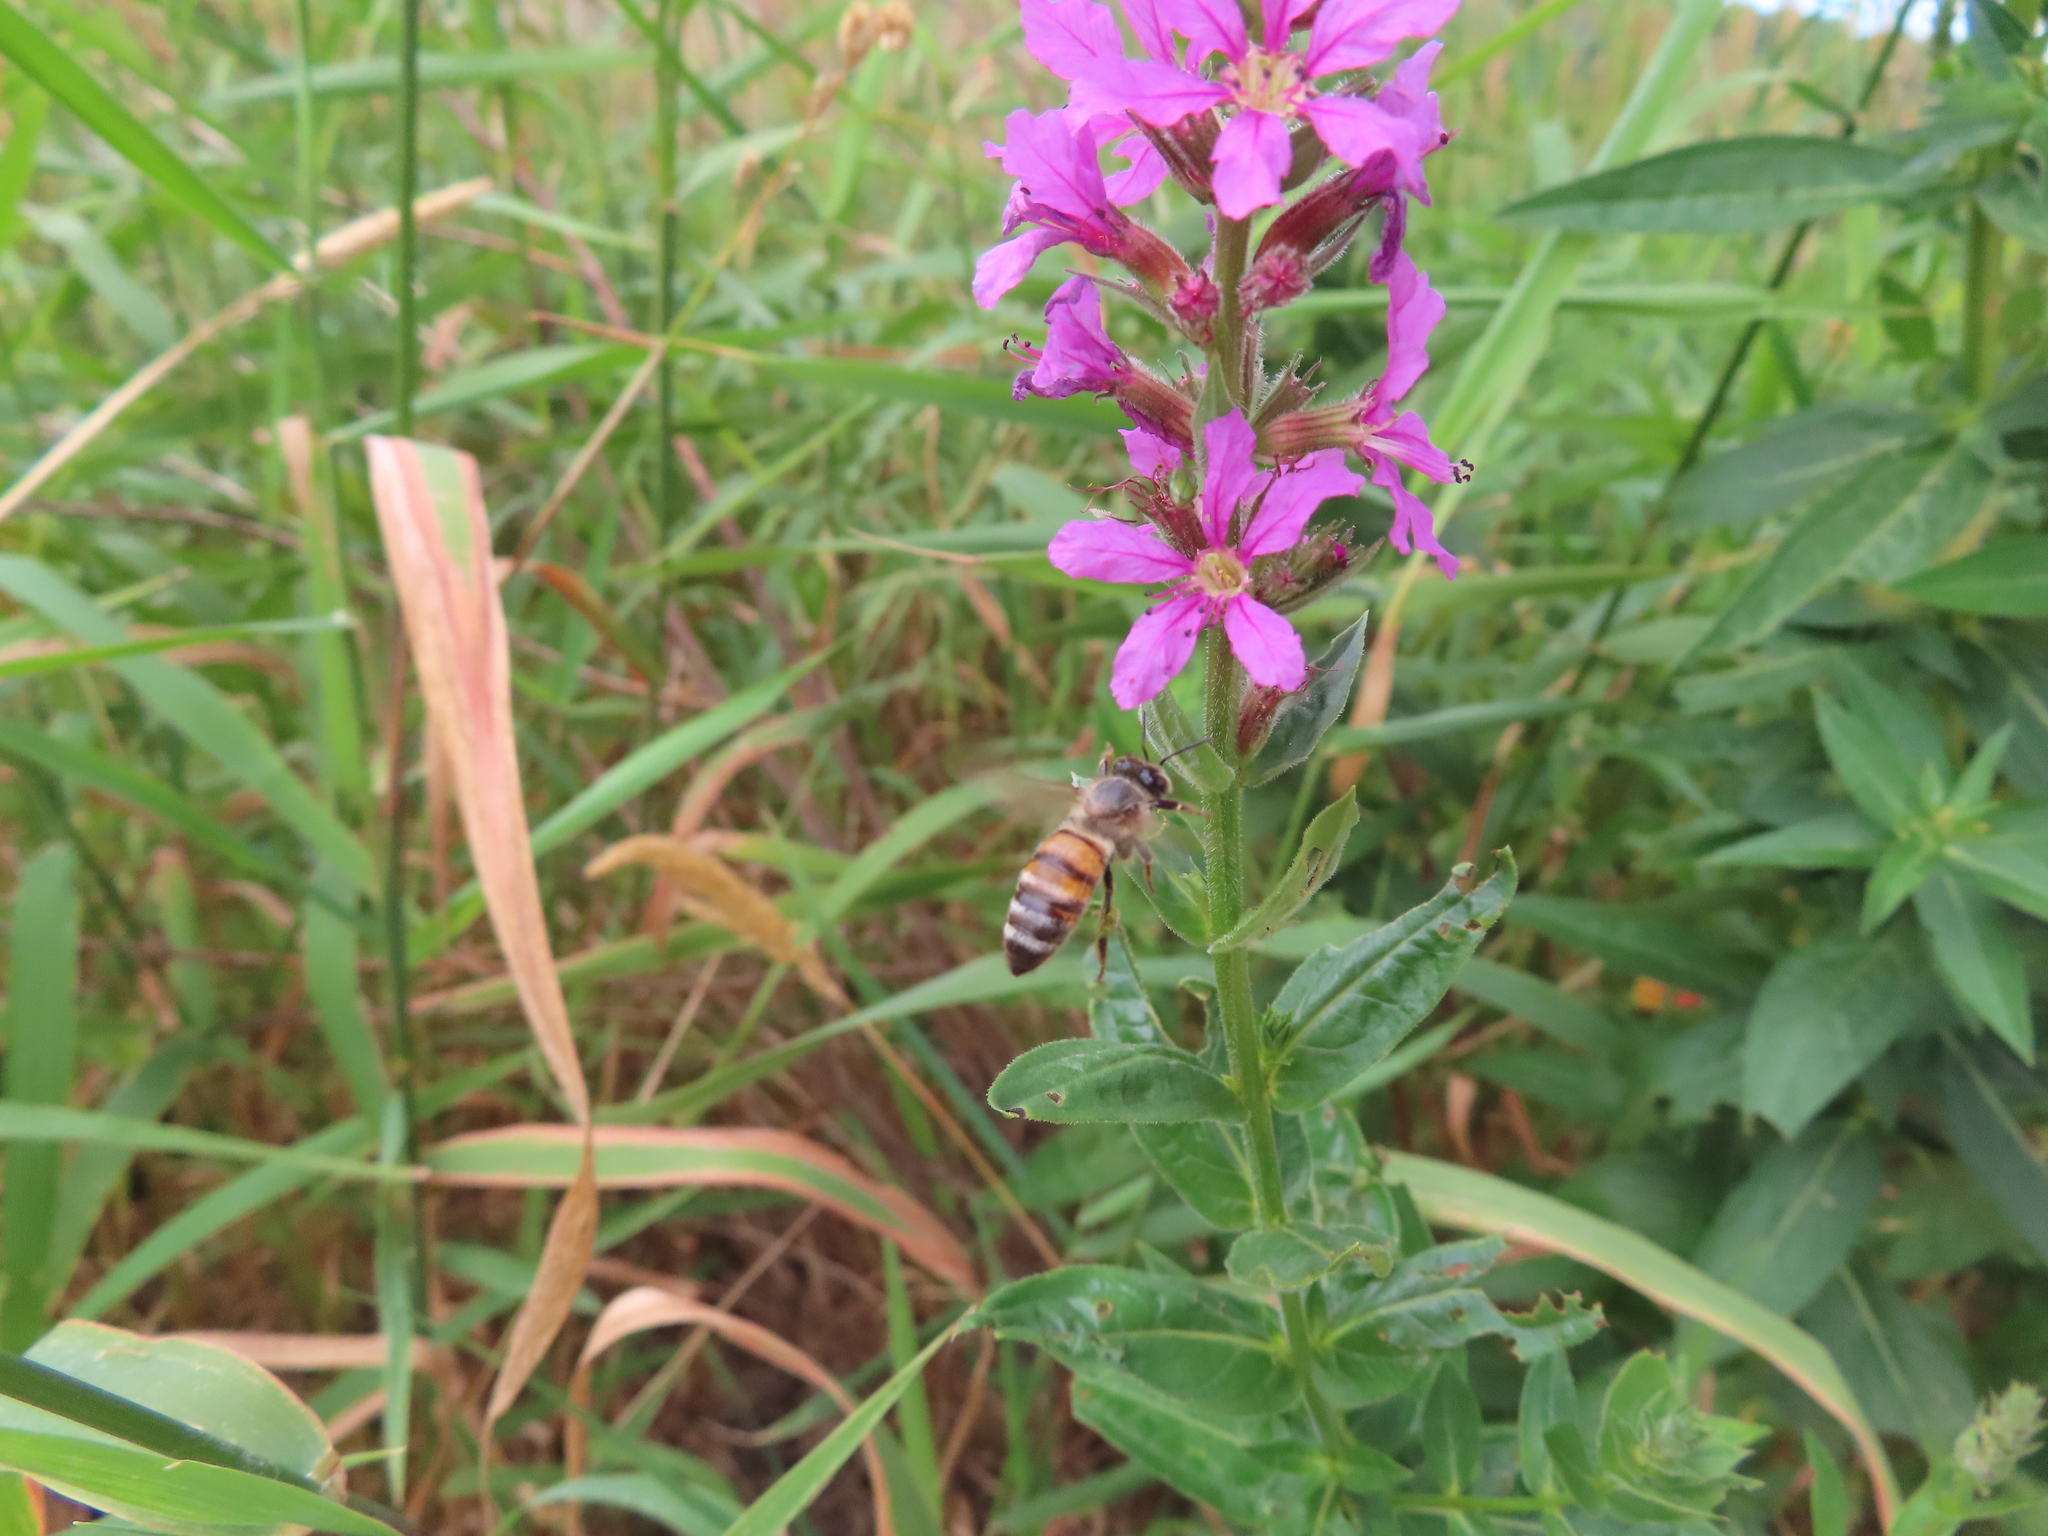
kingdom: Animalia
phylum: Arthropoda
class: Insecta
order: Hymenoptera
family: Apidae
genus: Apis
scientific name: Apis mellifera
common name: Honey bee
